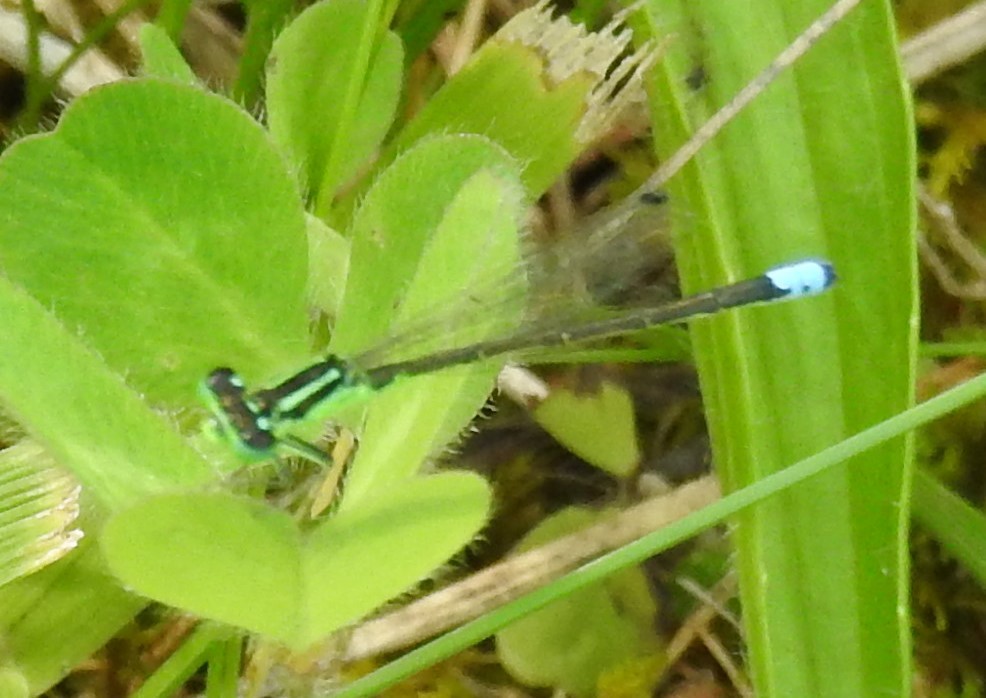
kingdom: Animalia
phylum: Arthropoda
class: Insecta
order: Odonata
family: Coenagrionidae
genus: Ischnura
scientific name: Ischnura verticalis
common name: Eastern forktail
